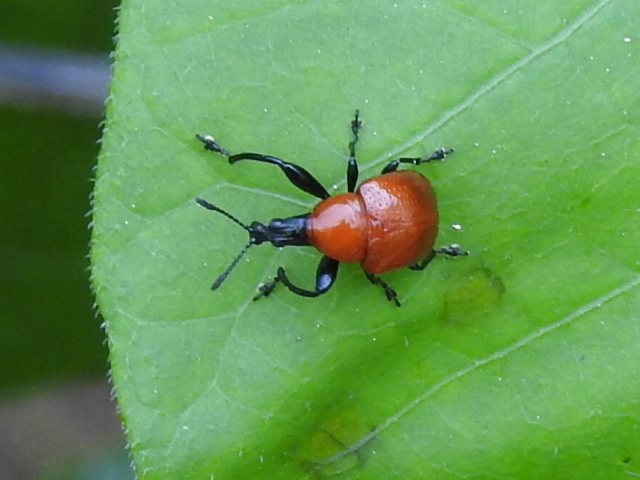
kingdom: Animalia
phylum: Arthropoda
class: Insecta
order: Coleoptera
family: Attelabidae
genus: Homoeolabus
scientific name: Homoeolabus analis
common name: Oak leaf rolling weevil
